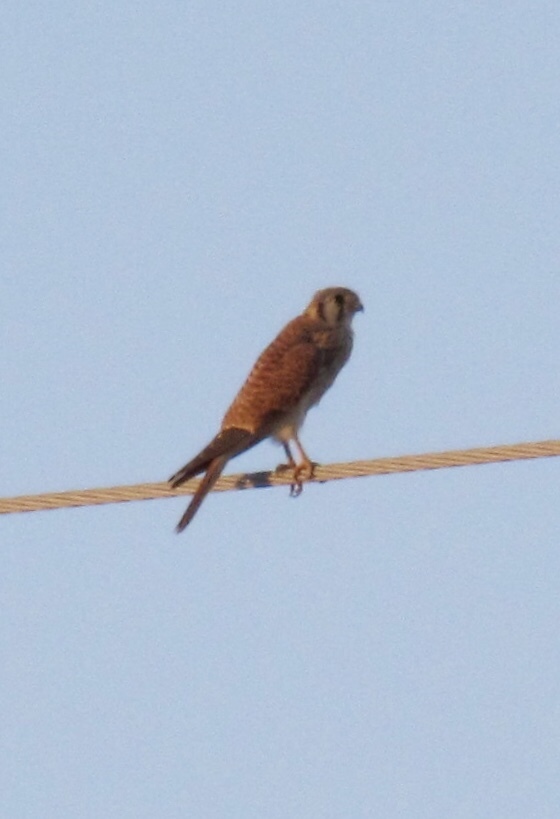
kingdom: Animalia
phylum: Chordata
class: Aves
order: Falconiformes
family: Falconidae
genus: Falco
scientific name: Falco sparverius
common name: American kestrel
